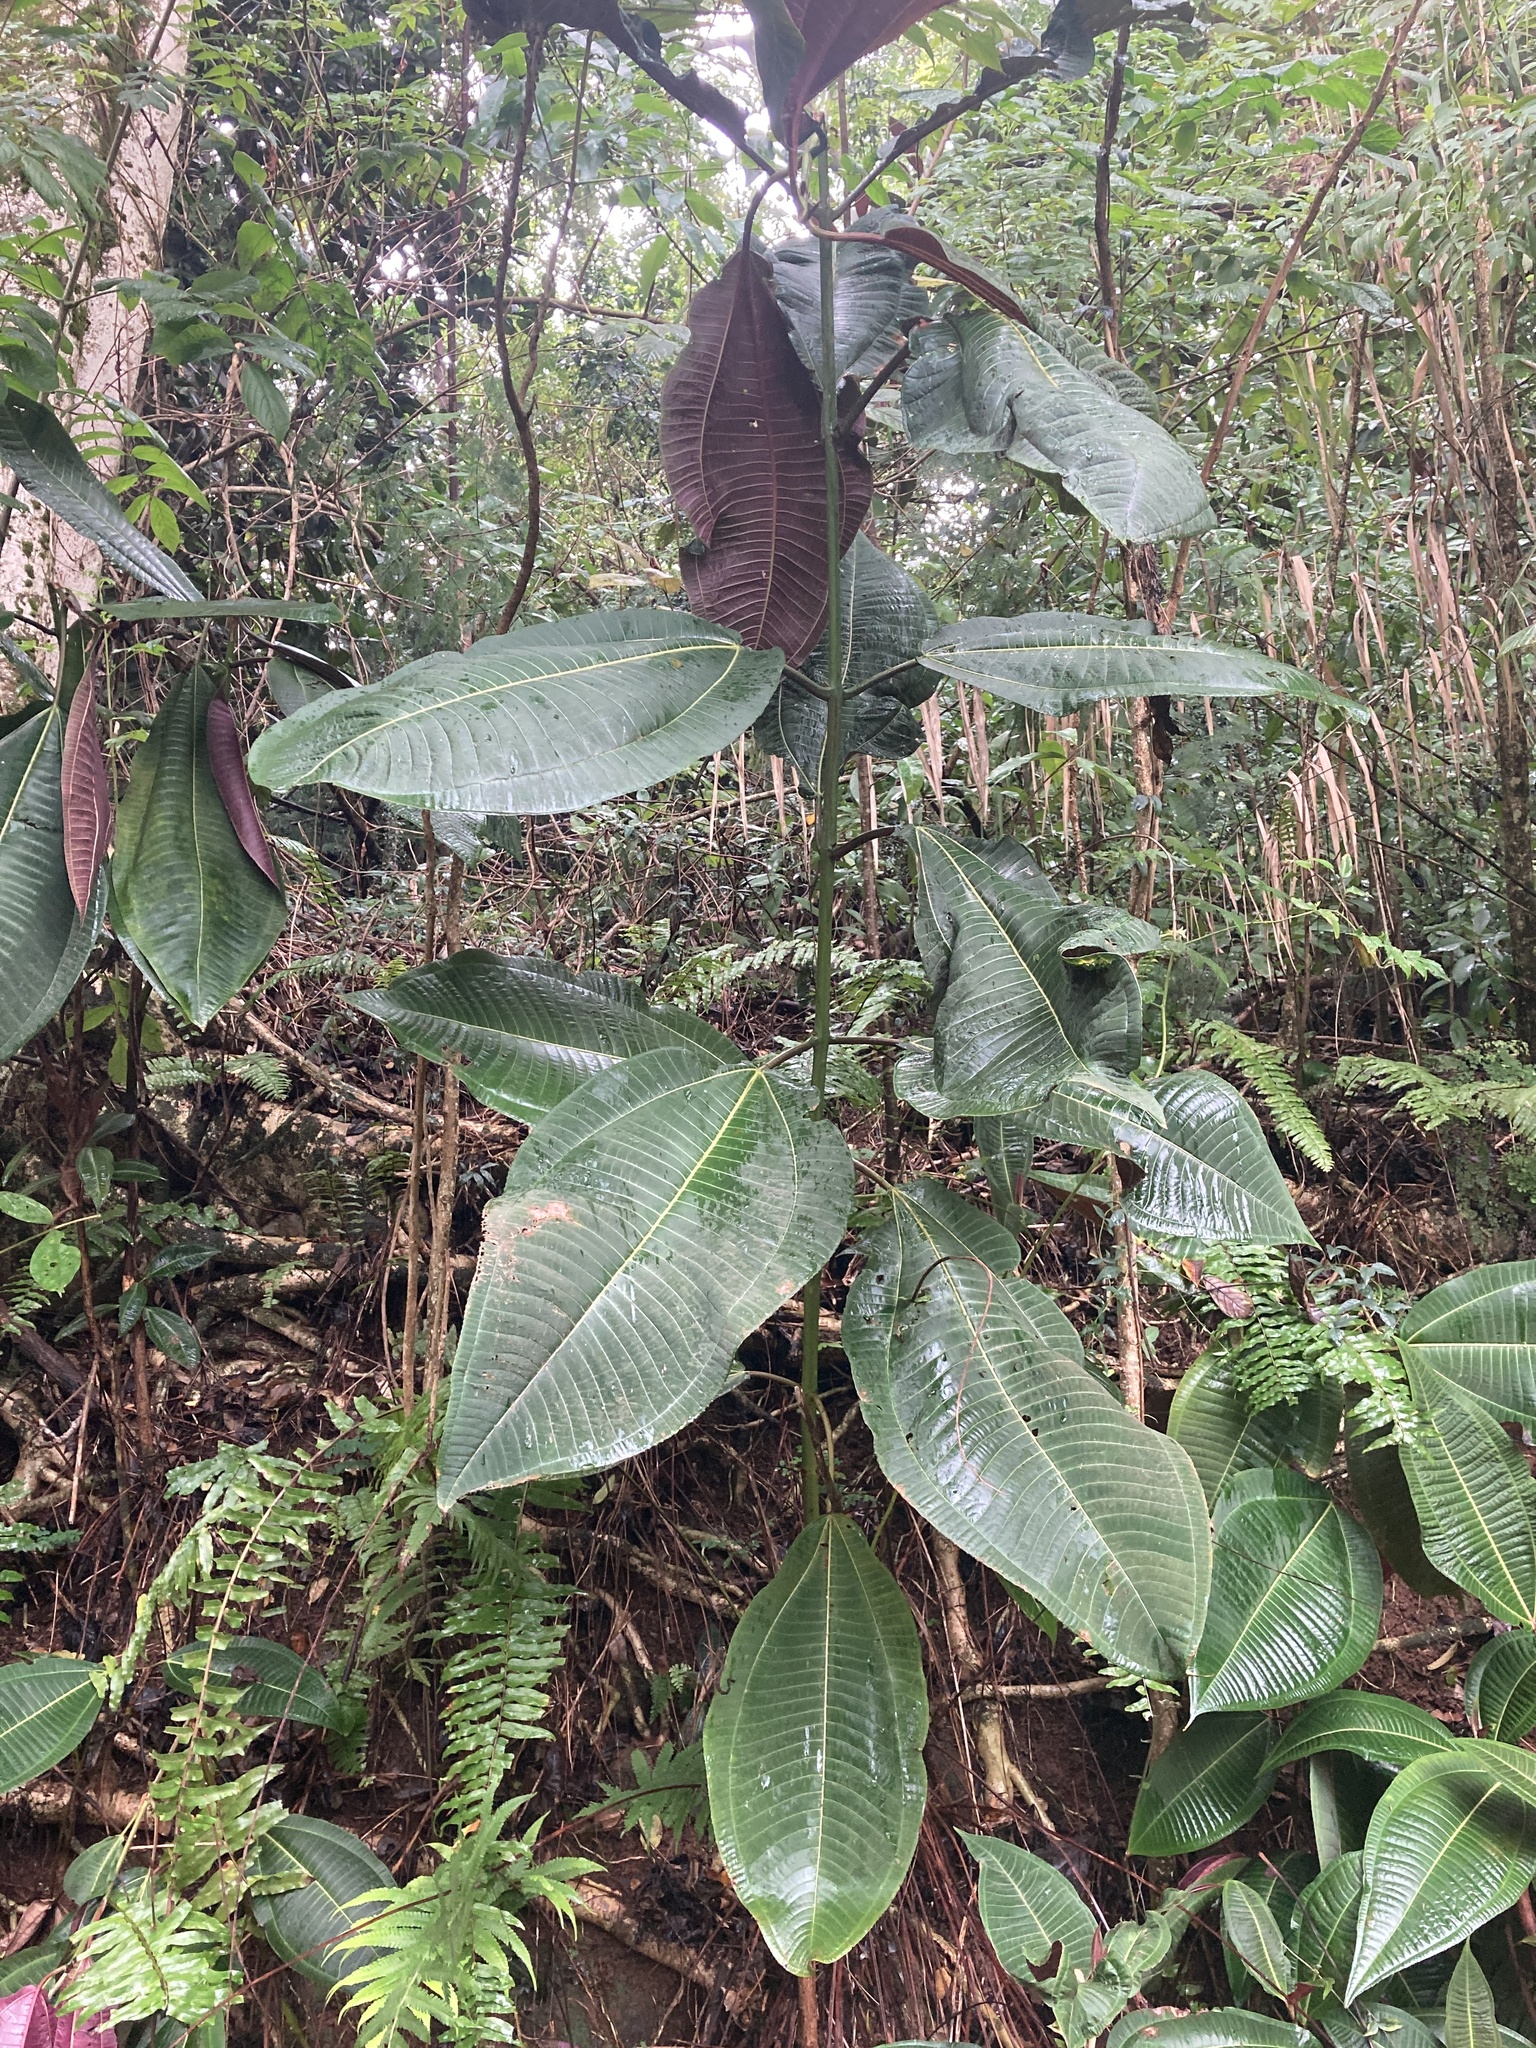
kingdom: Plantae
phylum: Tracheophyta
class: Magnoliopsida
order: Myrtales
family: Melastomataceae
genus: Miconia
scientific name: Miconia calvescens
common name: Purple plague
